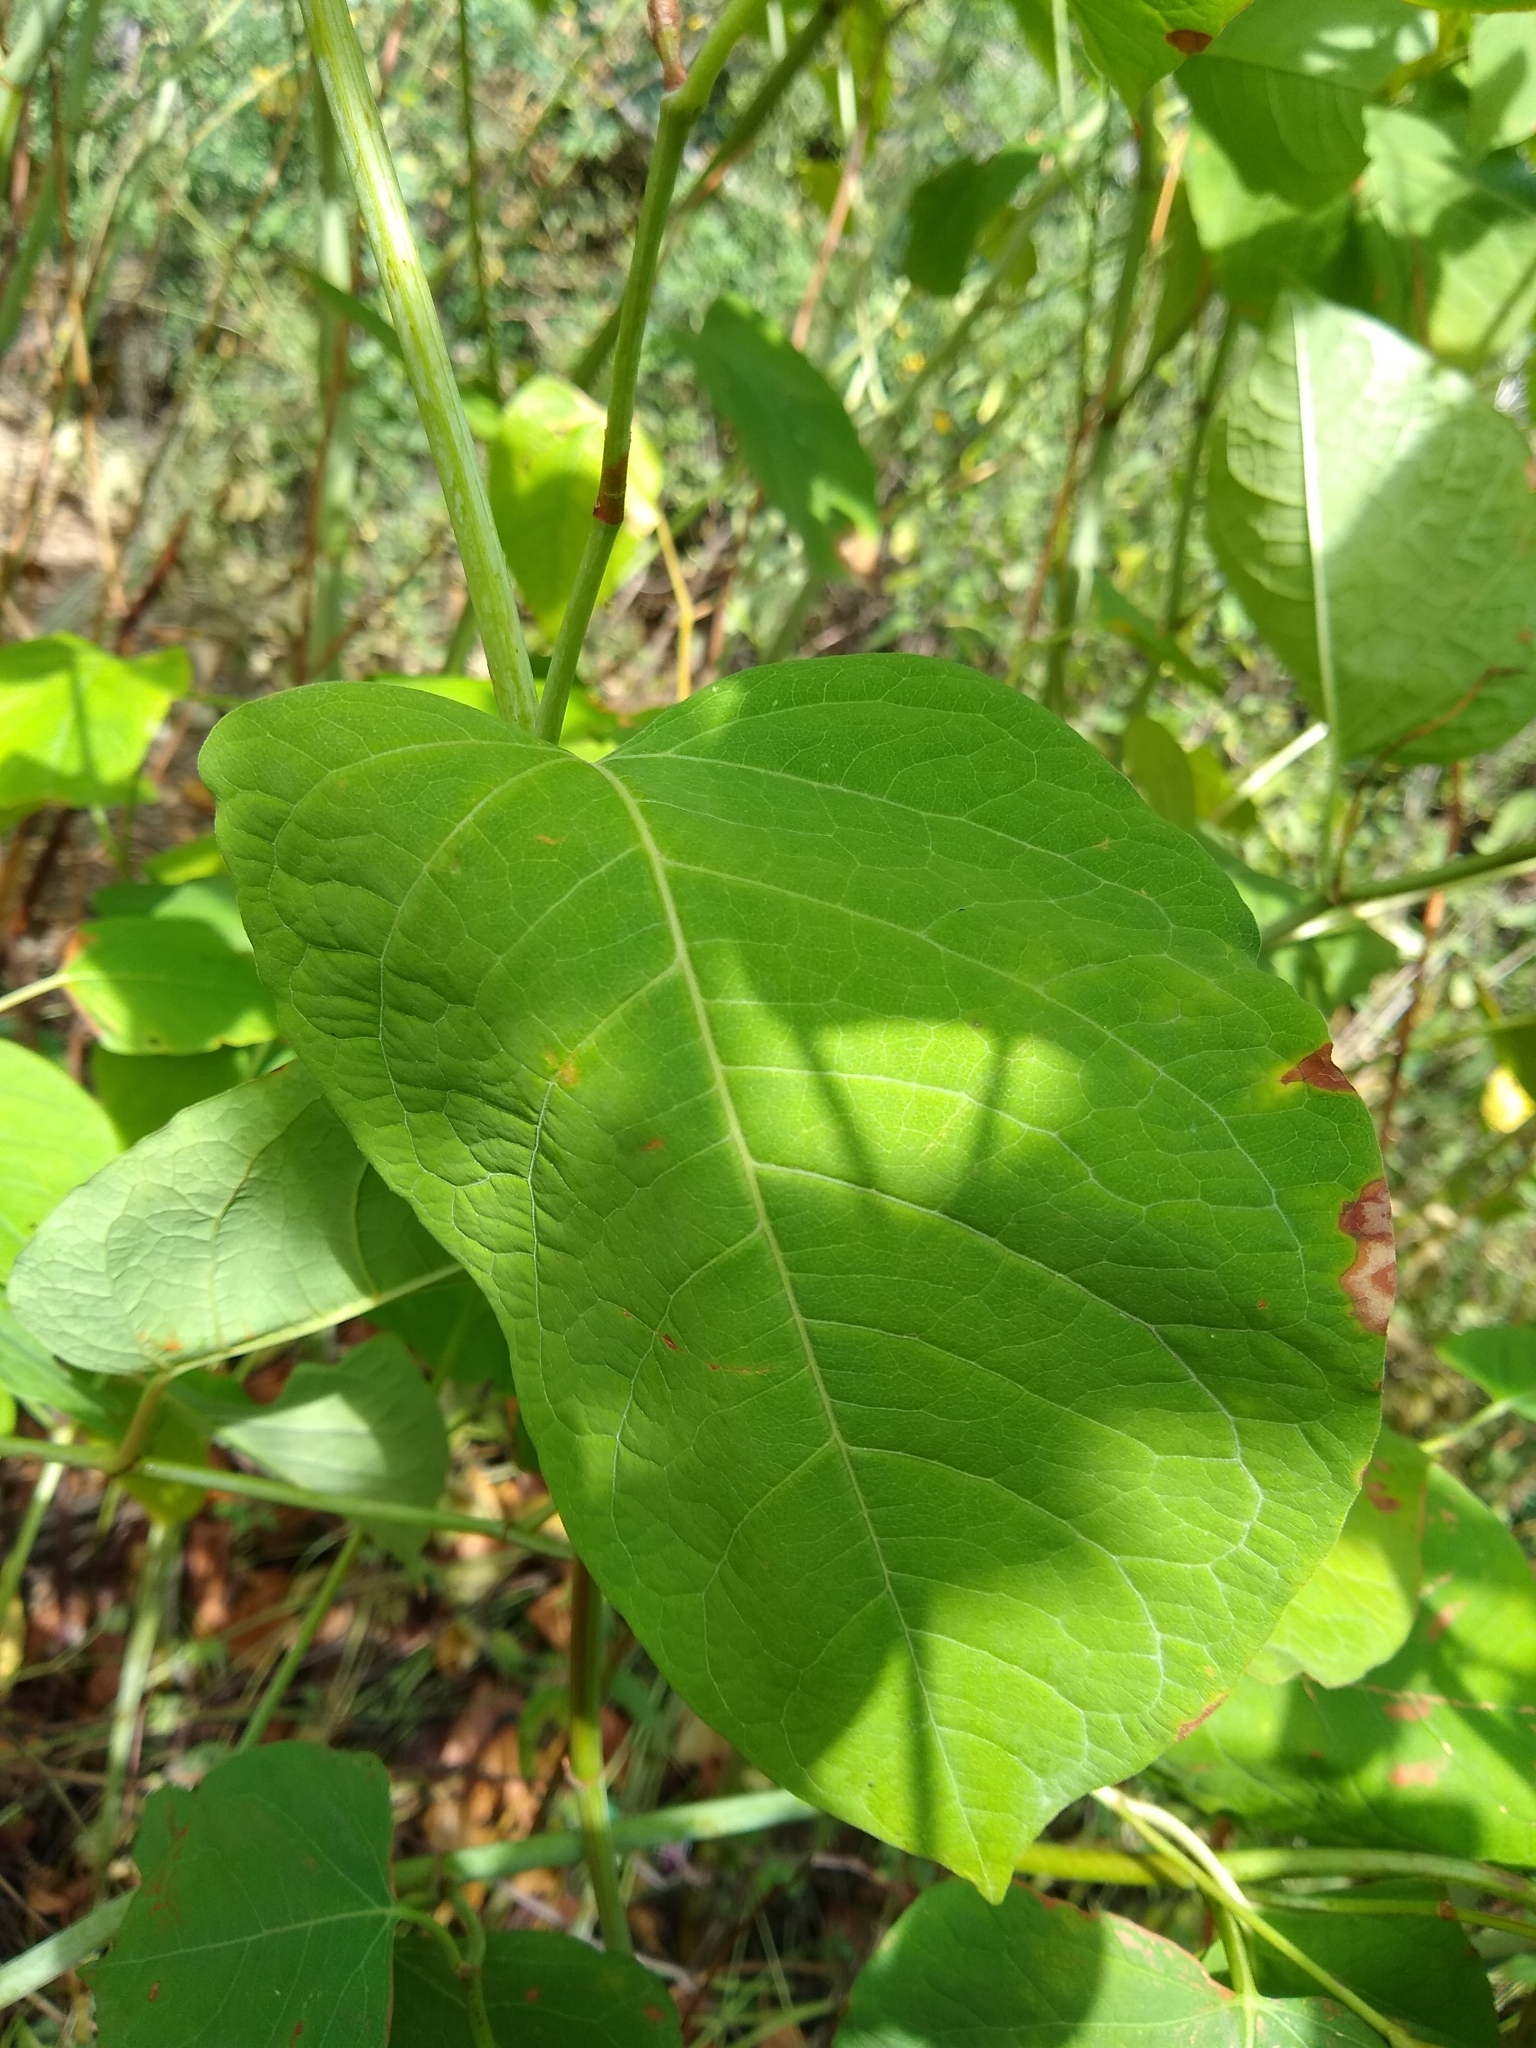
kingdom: Plantae
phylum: Tracheophyta
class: Magnoliopsida
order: Caryophyllales
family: Polygonaceae
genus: Reynoutria
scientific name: Reynoutria bohemica
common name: Bohemian knotweed
